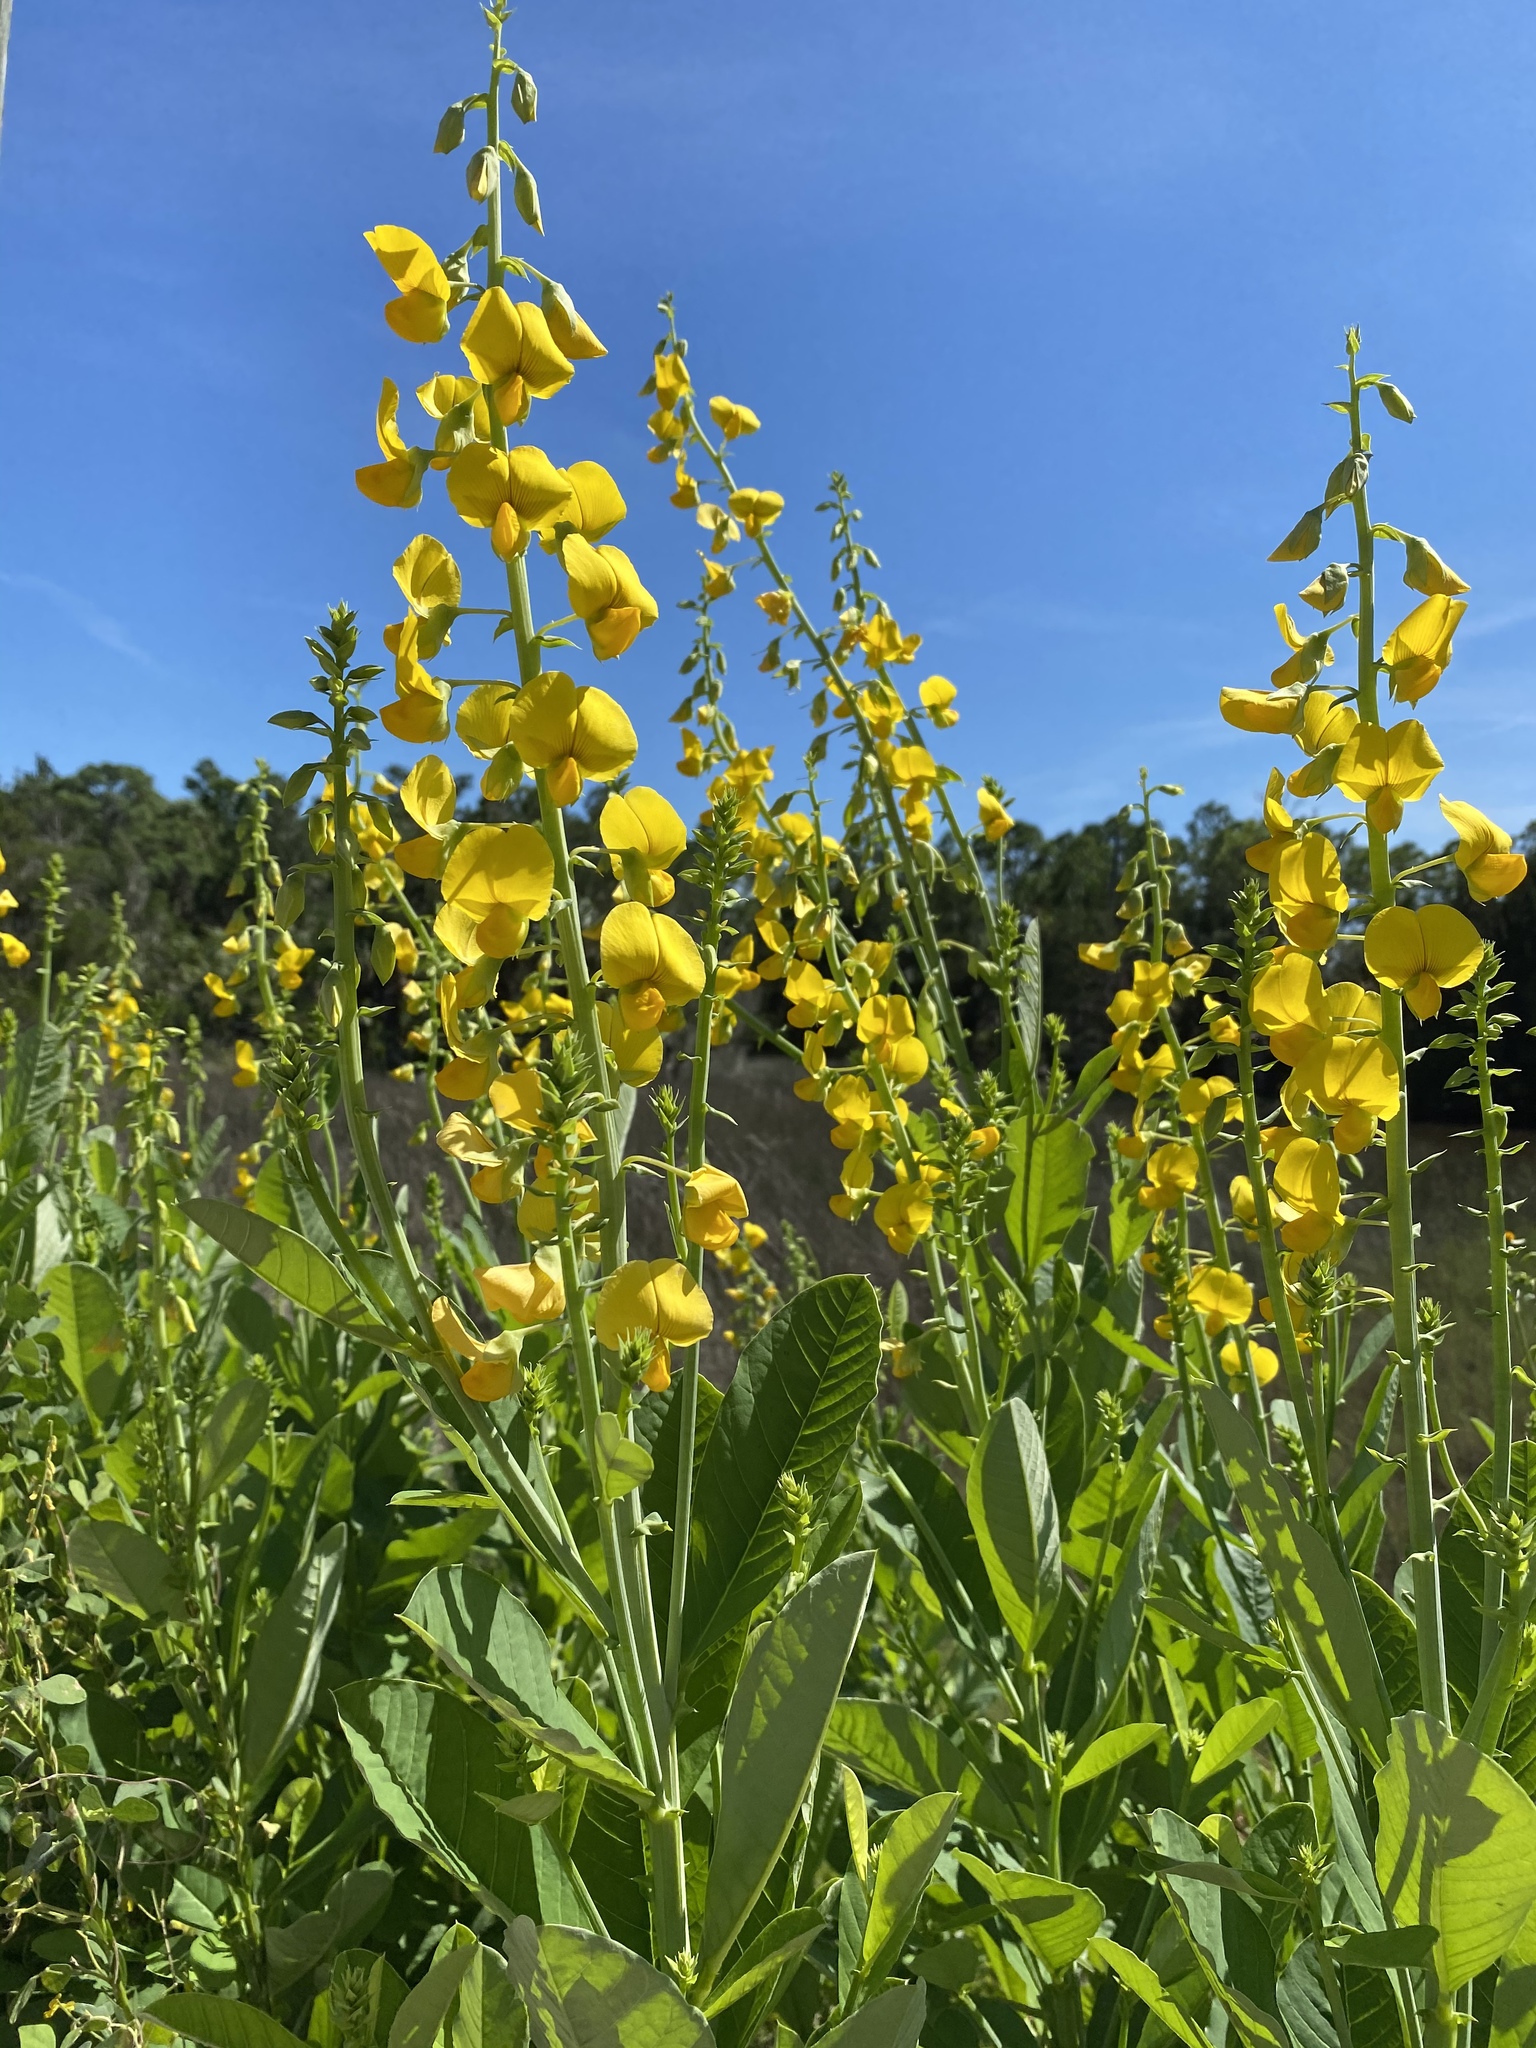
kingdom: Plantae
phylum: Tracheophyta
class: Magnoliopsida
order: Fabales
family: Fabaceae
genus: Crotalaria
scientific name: Crotalaria spectabilis
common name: Showy rattlebox
